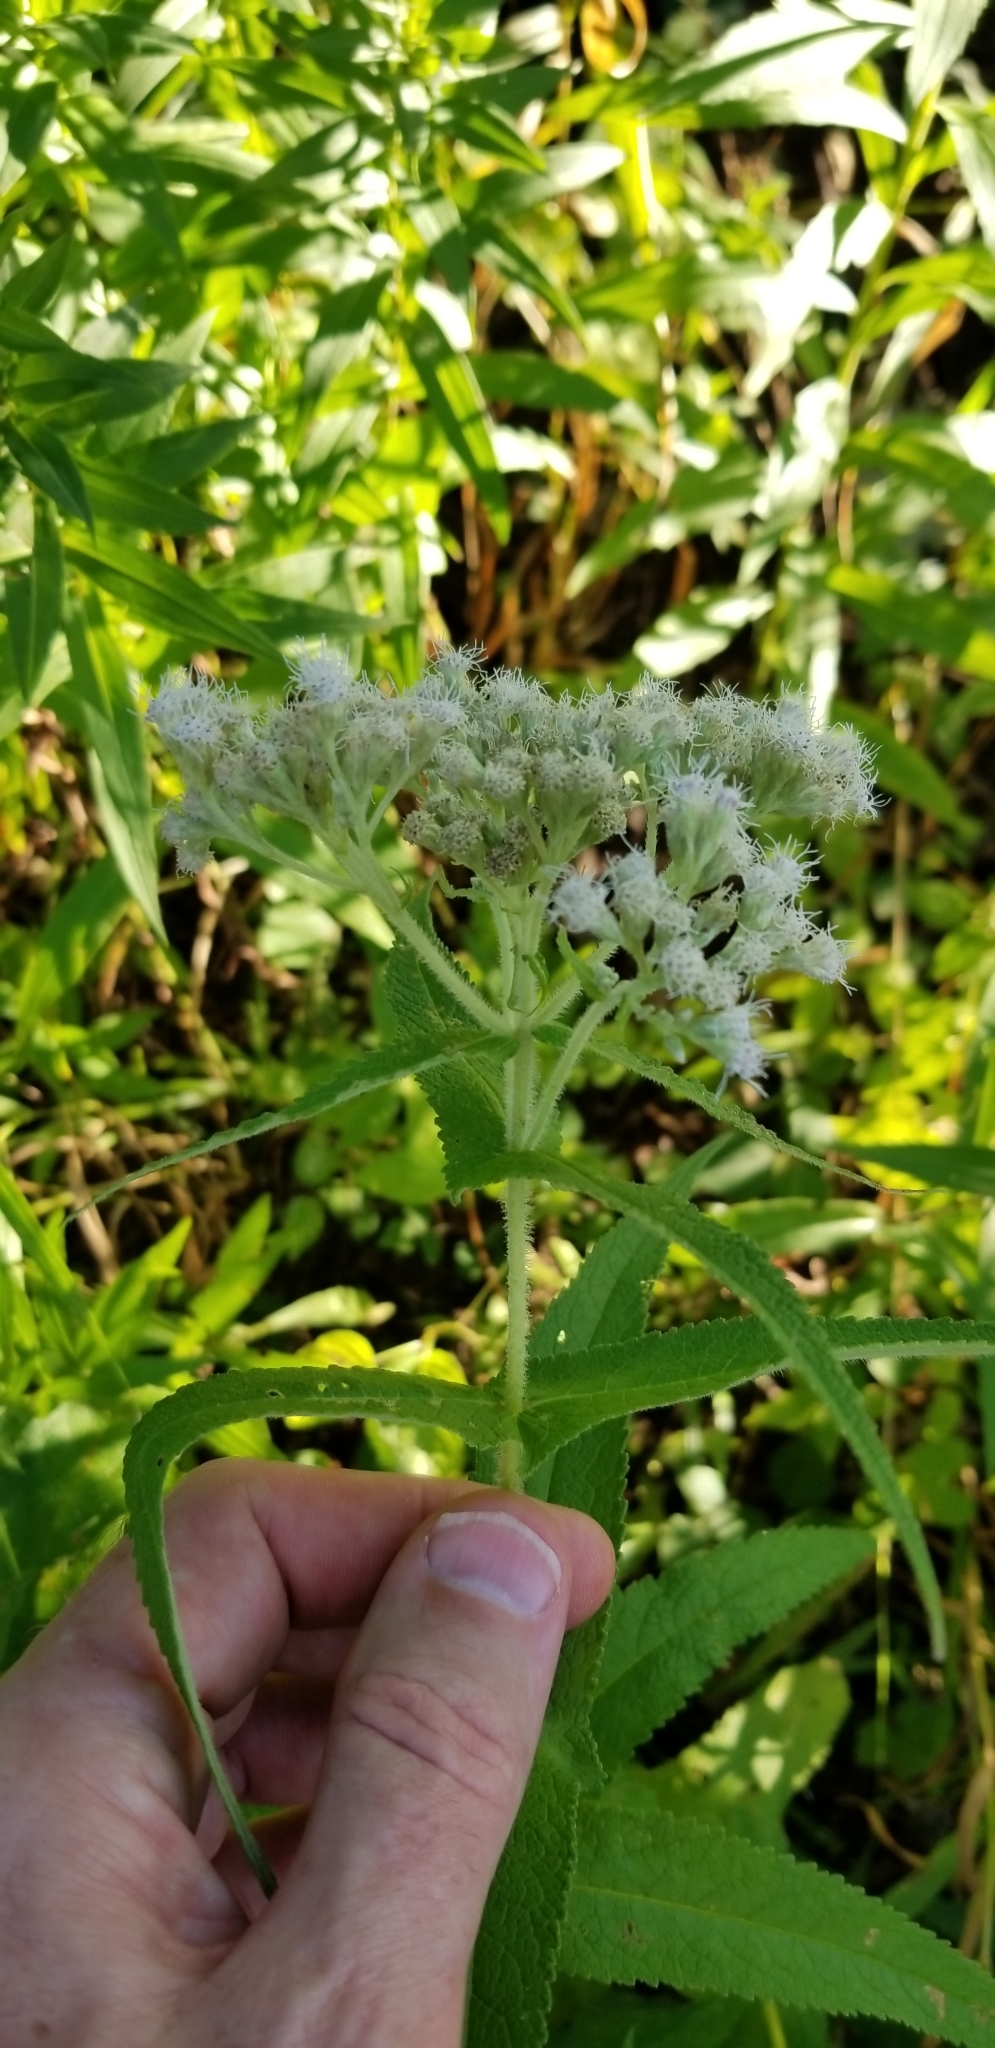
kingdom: Plantae
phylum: Tracheophyta
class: Magnoliopsida
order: Asterales
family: Asteraceae
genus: Eupatorium
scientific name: Eupatorium perfoliatum
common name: Boneset
